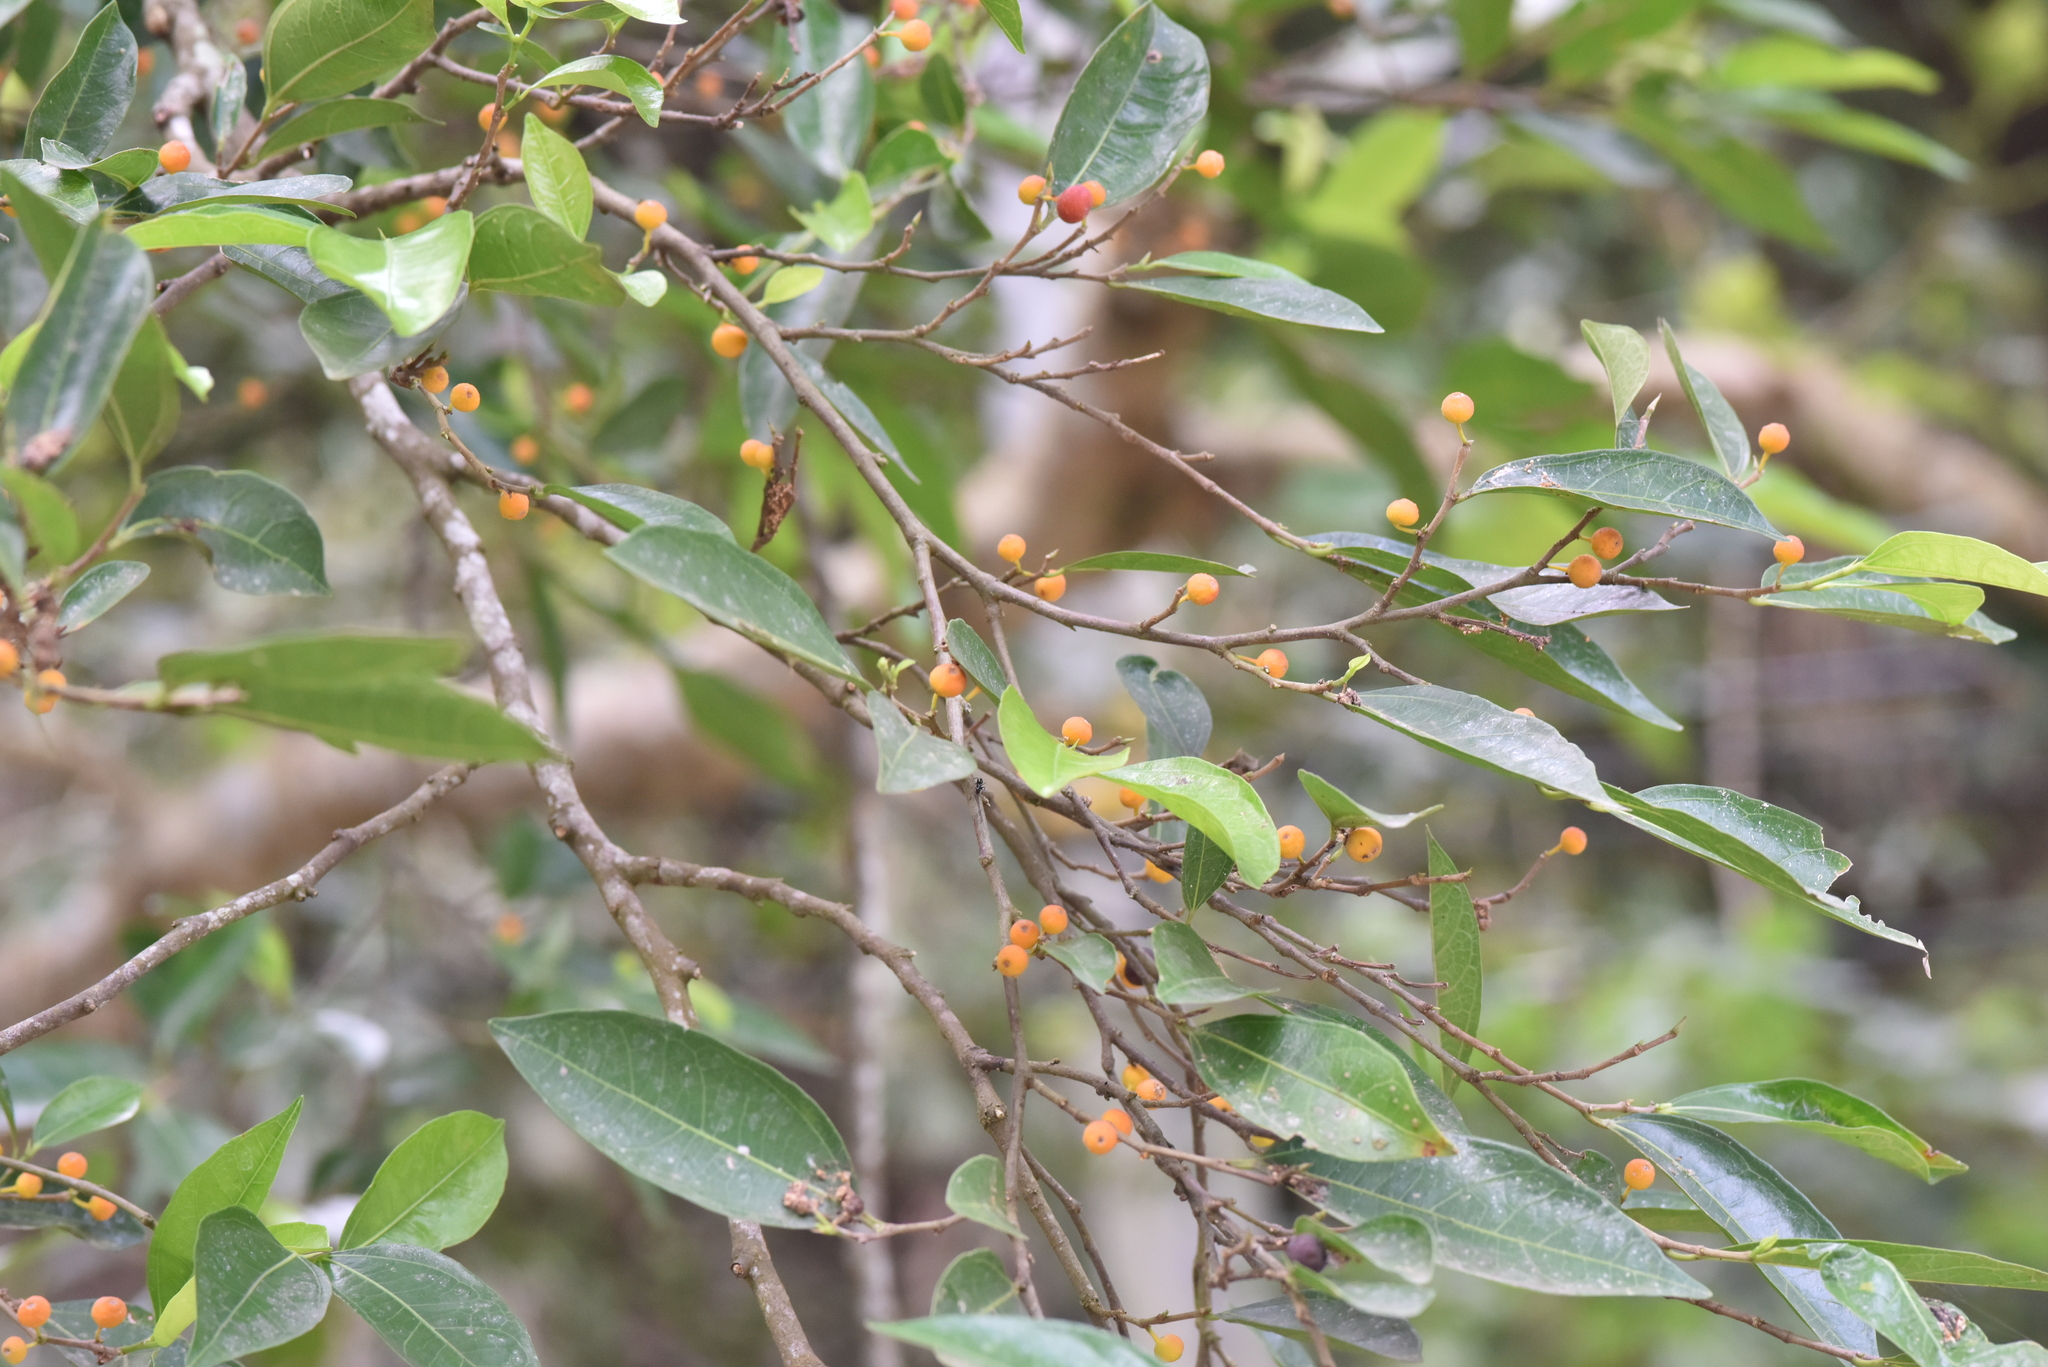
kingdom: Plantae
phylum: Tracheophyta
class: Magnoliopsida
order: Rosales
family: Moraceae
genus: Ficus
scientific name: Ficus ampelos
